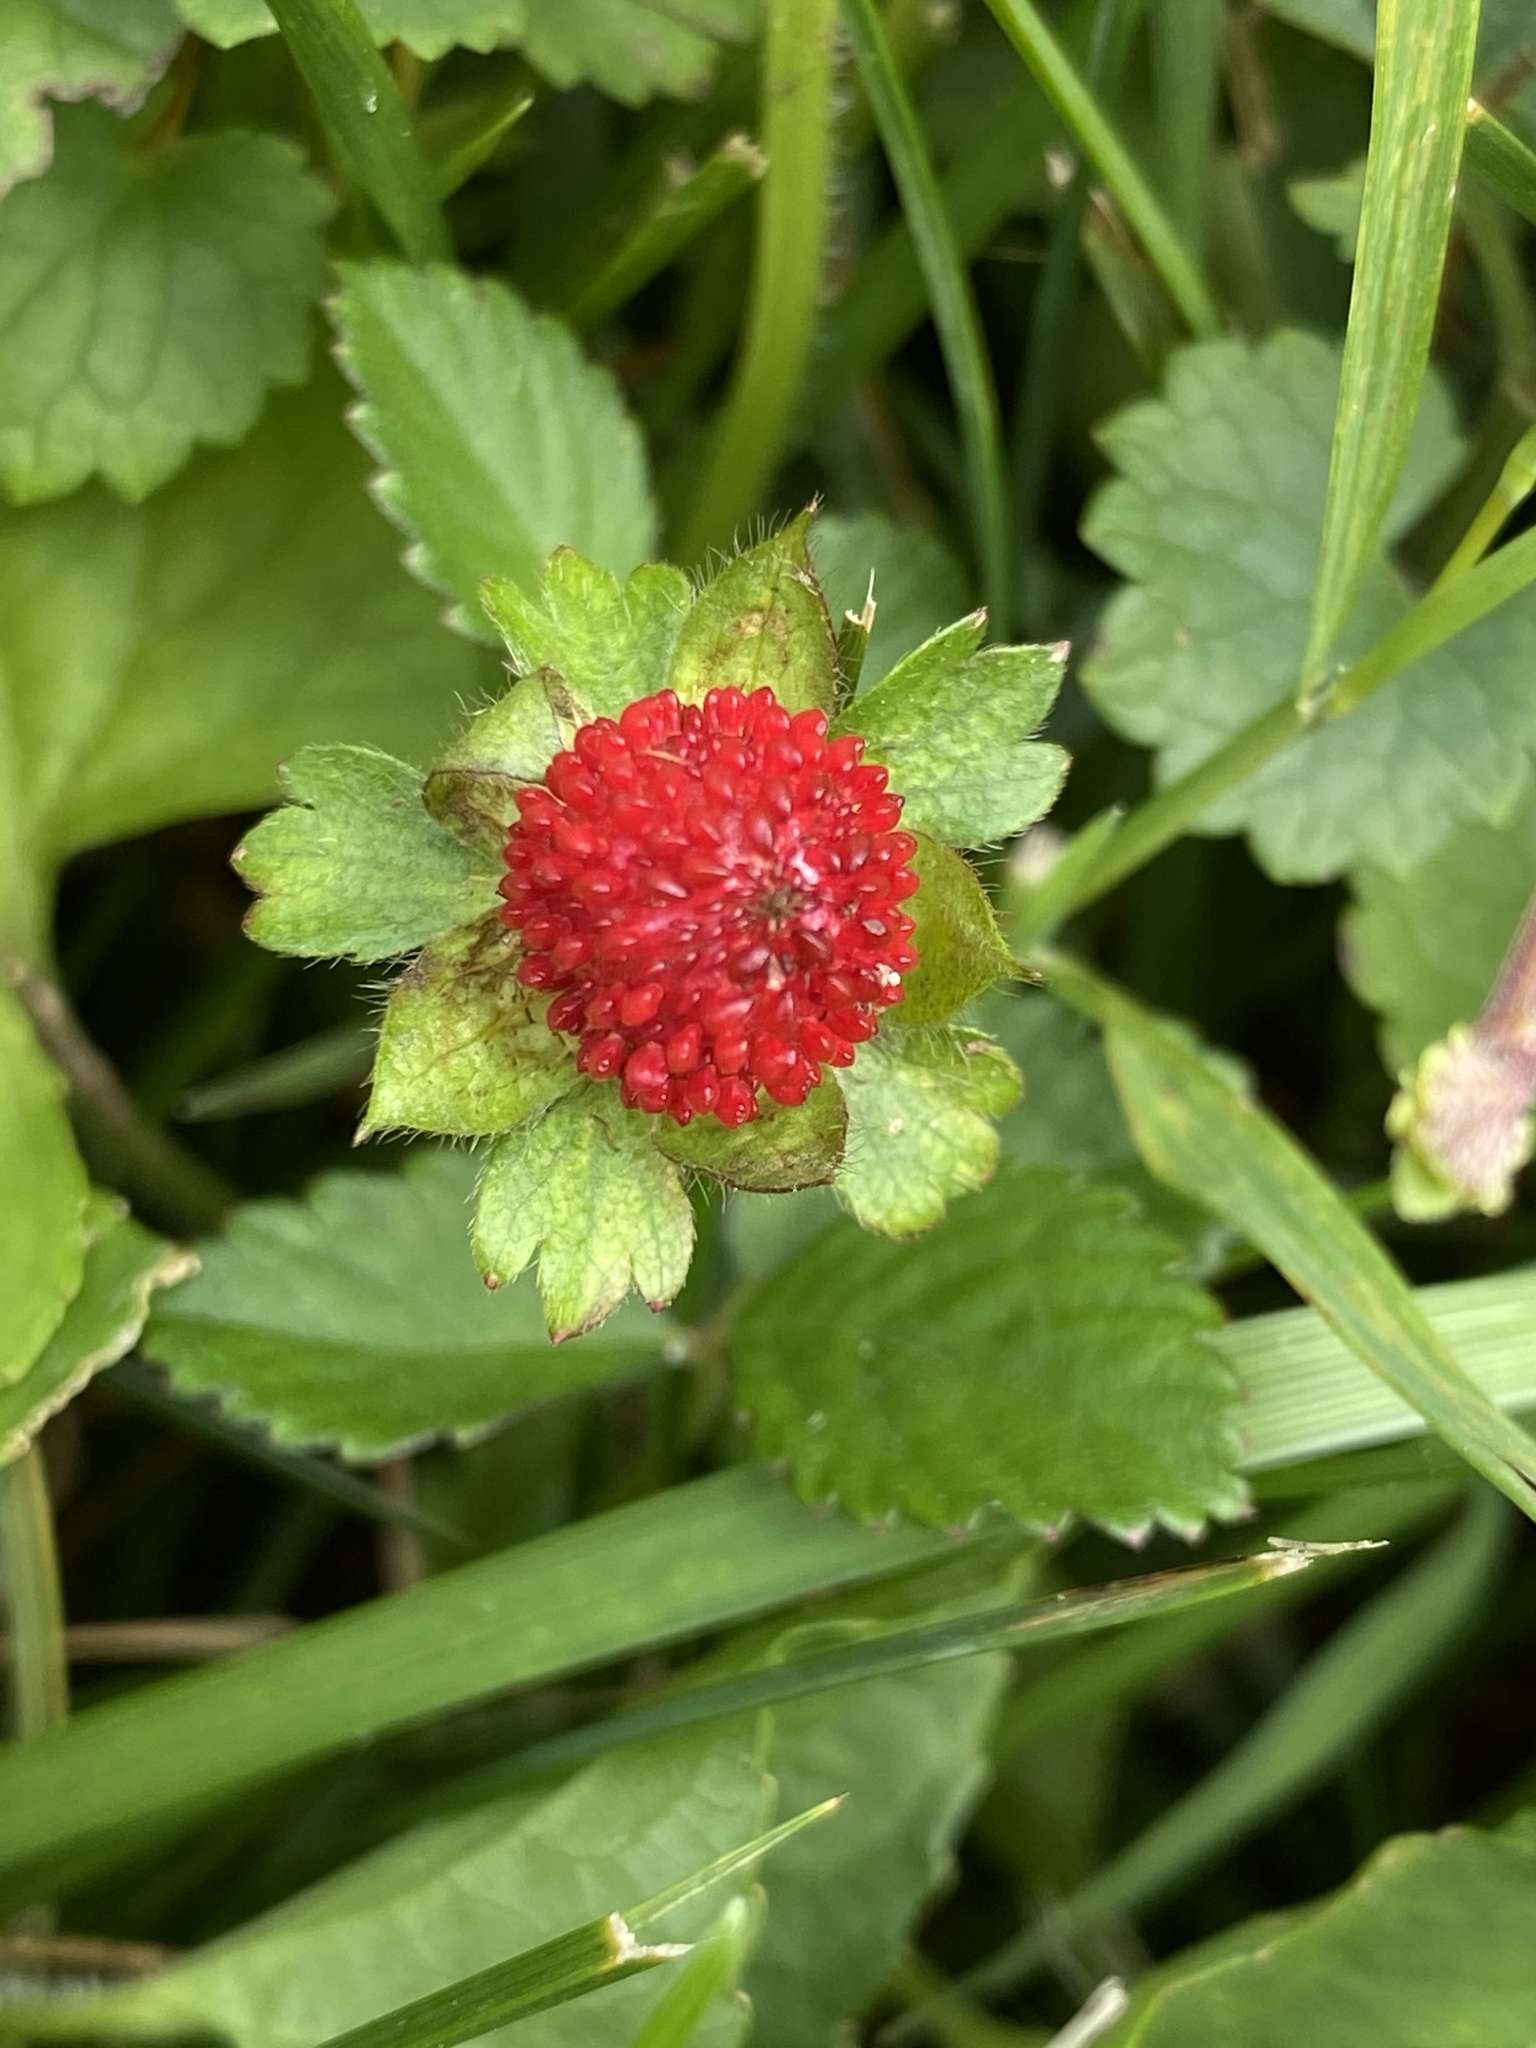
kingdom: Plantae
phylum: Tracheophyta
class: Magnoliopsida
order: Rosales
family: Rosaceae
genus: Potentilla
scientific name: Potentilla indica
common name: Yellow-flowered strawberry
